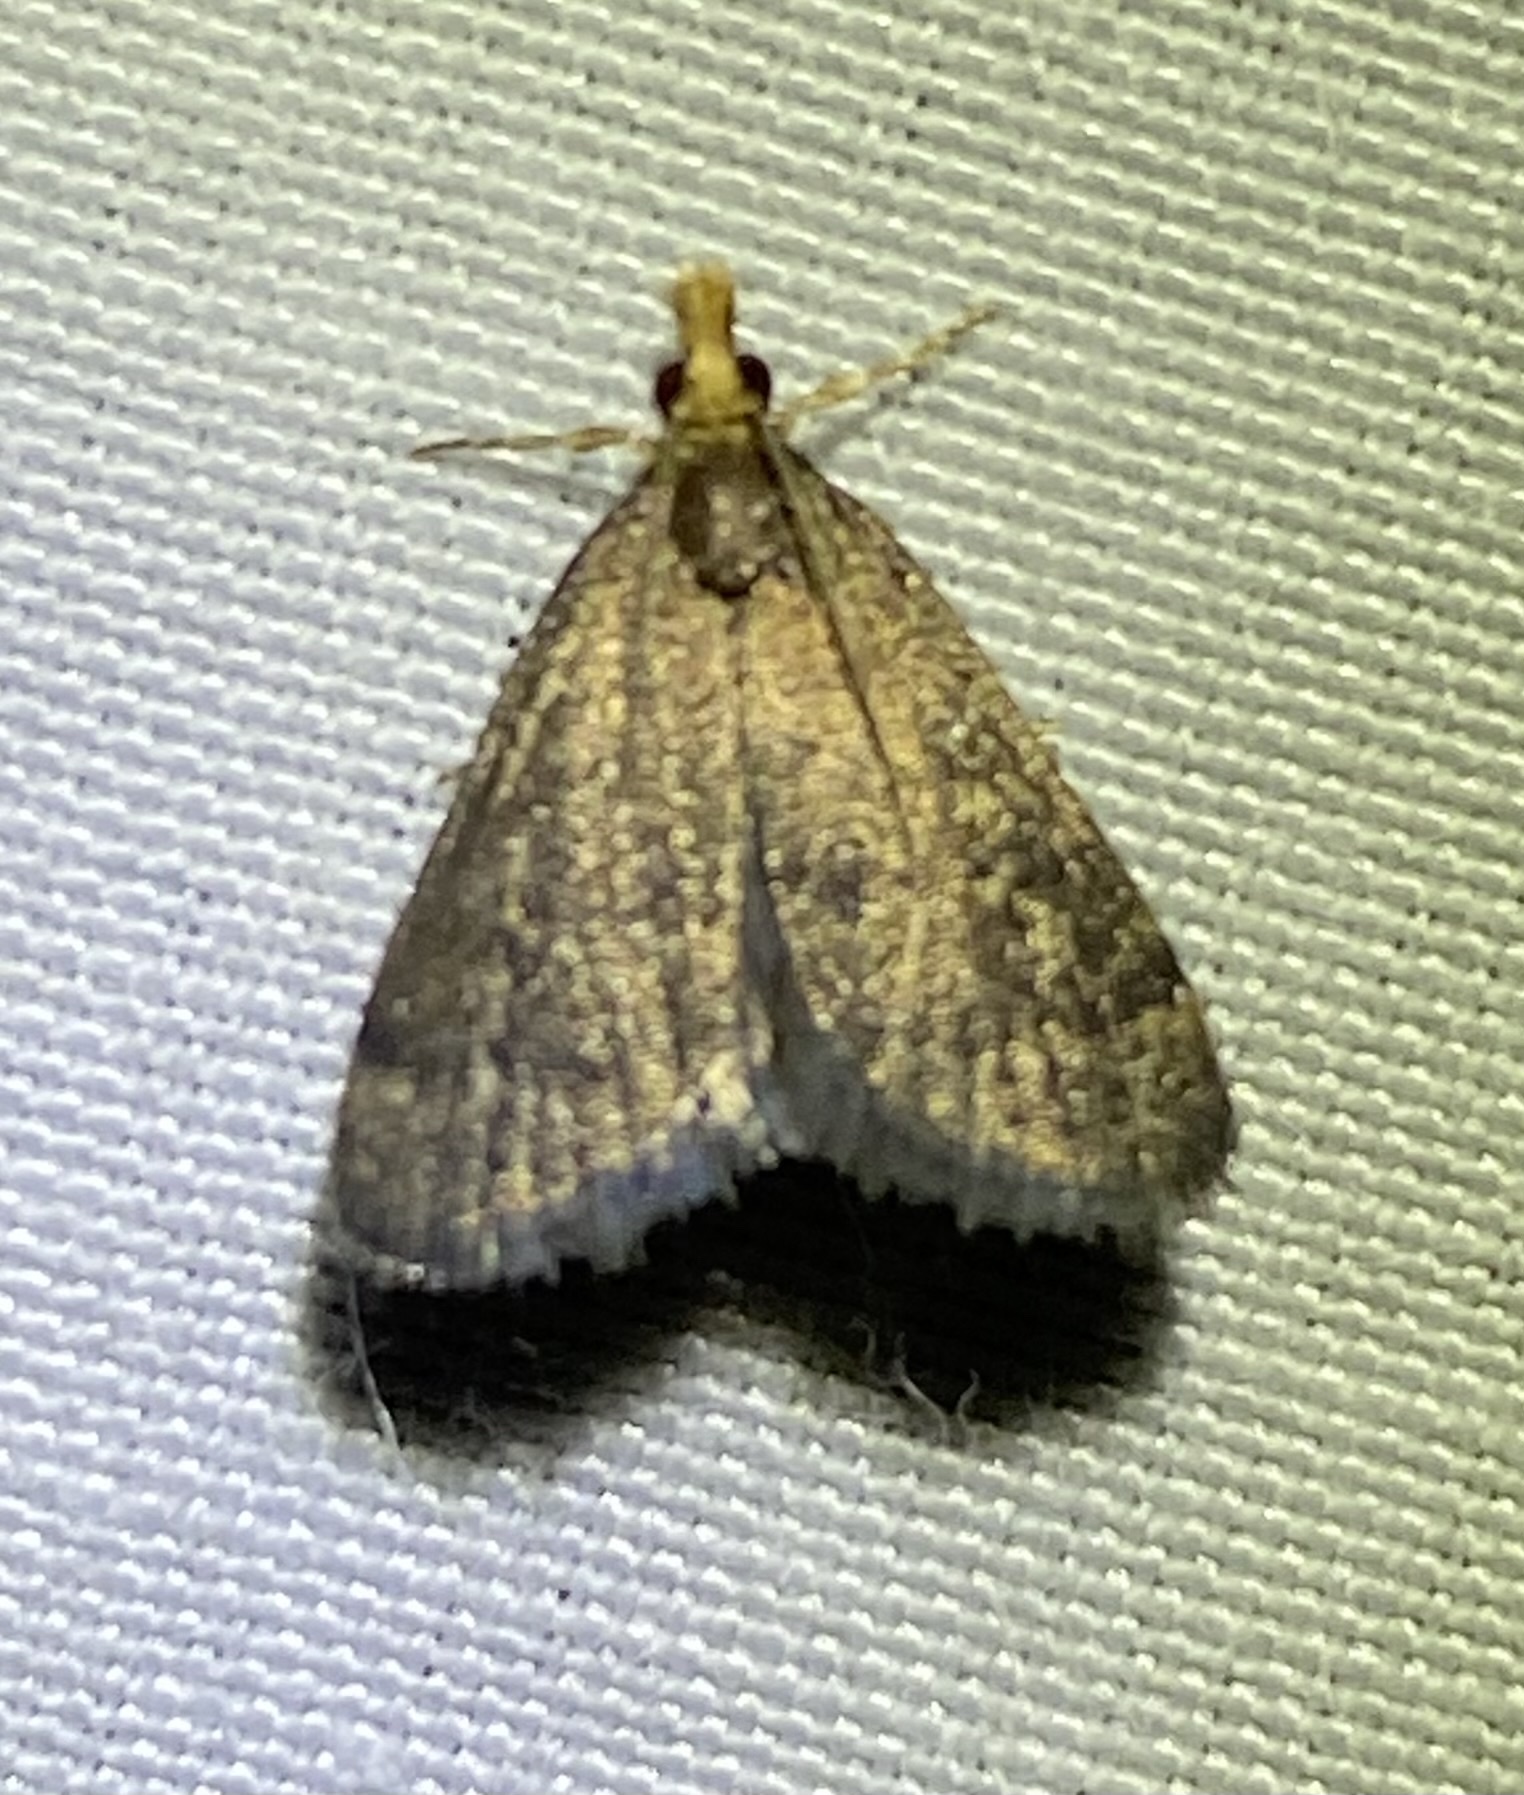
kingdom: Animalia
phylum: Arthropoda
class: Insecta
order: Lepidoptera
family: Crambidae
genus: Pyrausta
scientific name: Pyrausta merrickalis
